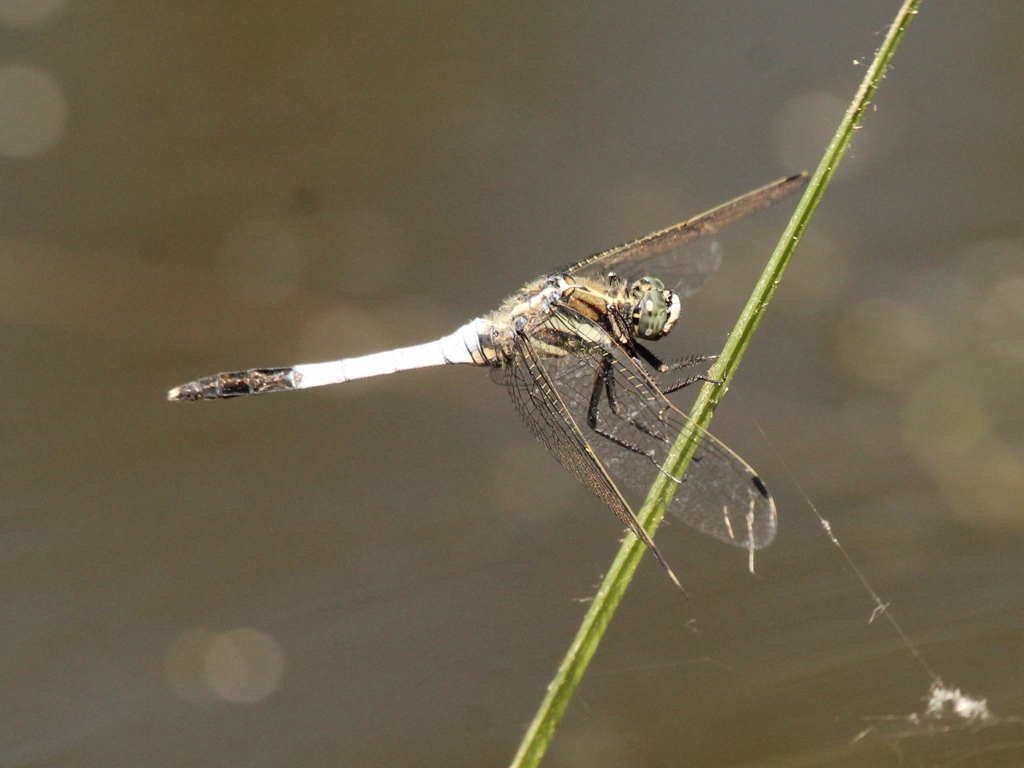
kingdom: Animalia
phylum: Arthropoda
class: Insecta
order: Odonata
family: Libellulidae
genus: Orthetrum
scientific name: Orthetrum albistylum
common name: White-tailed skimmer
